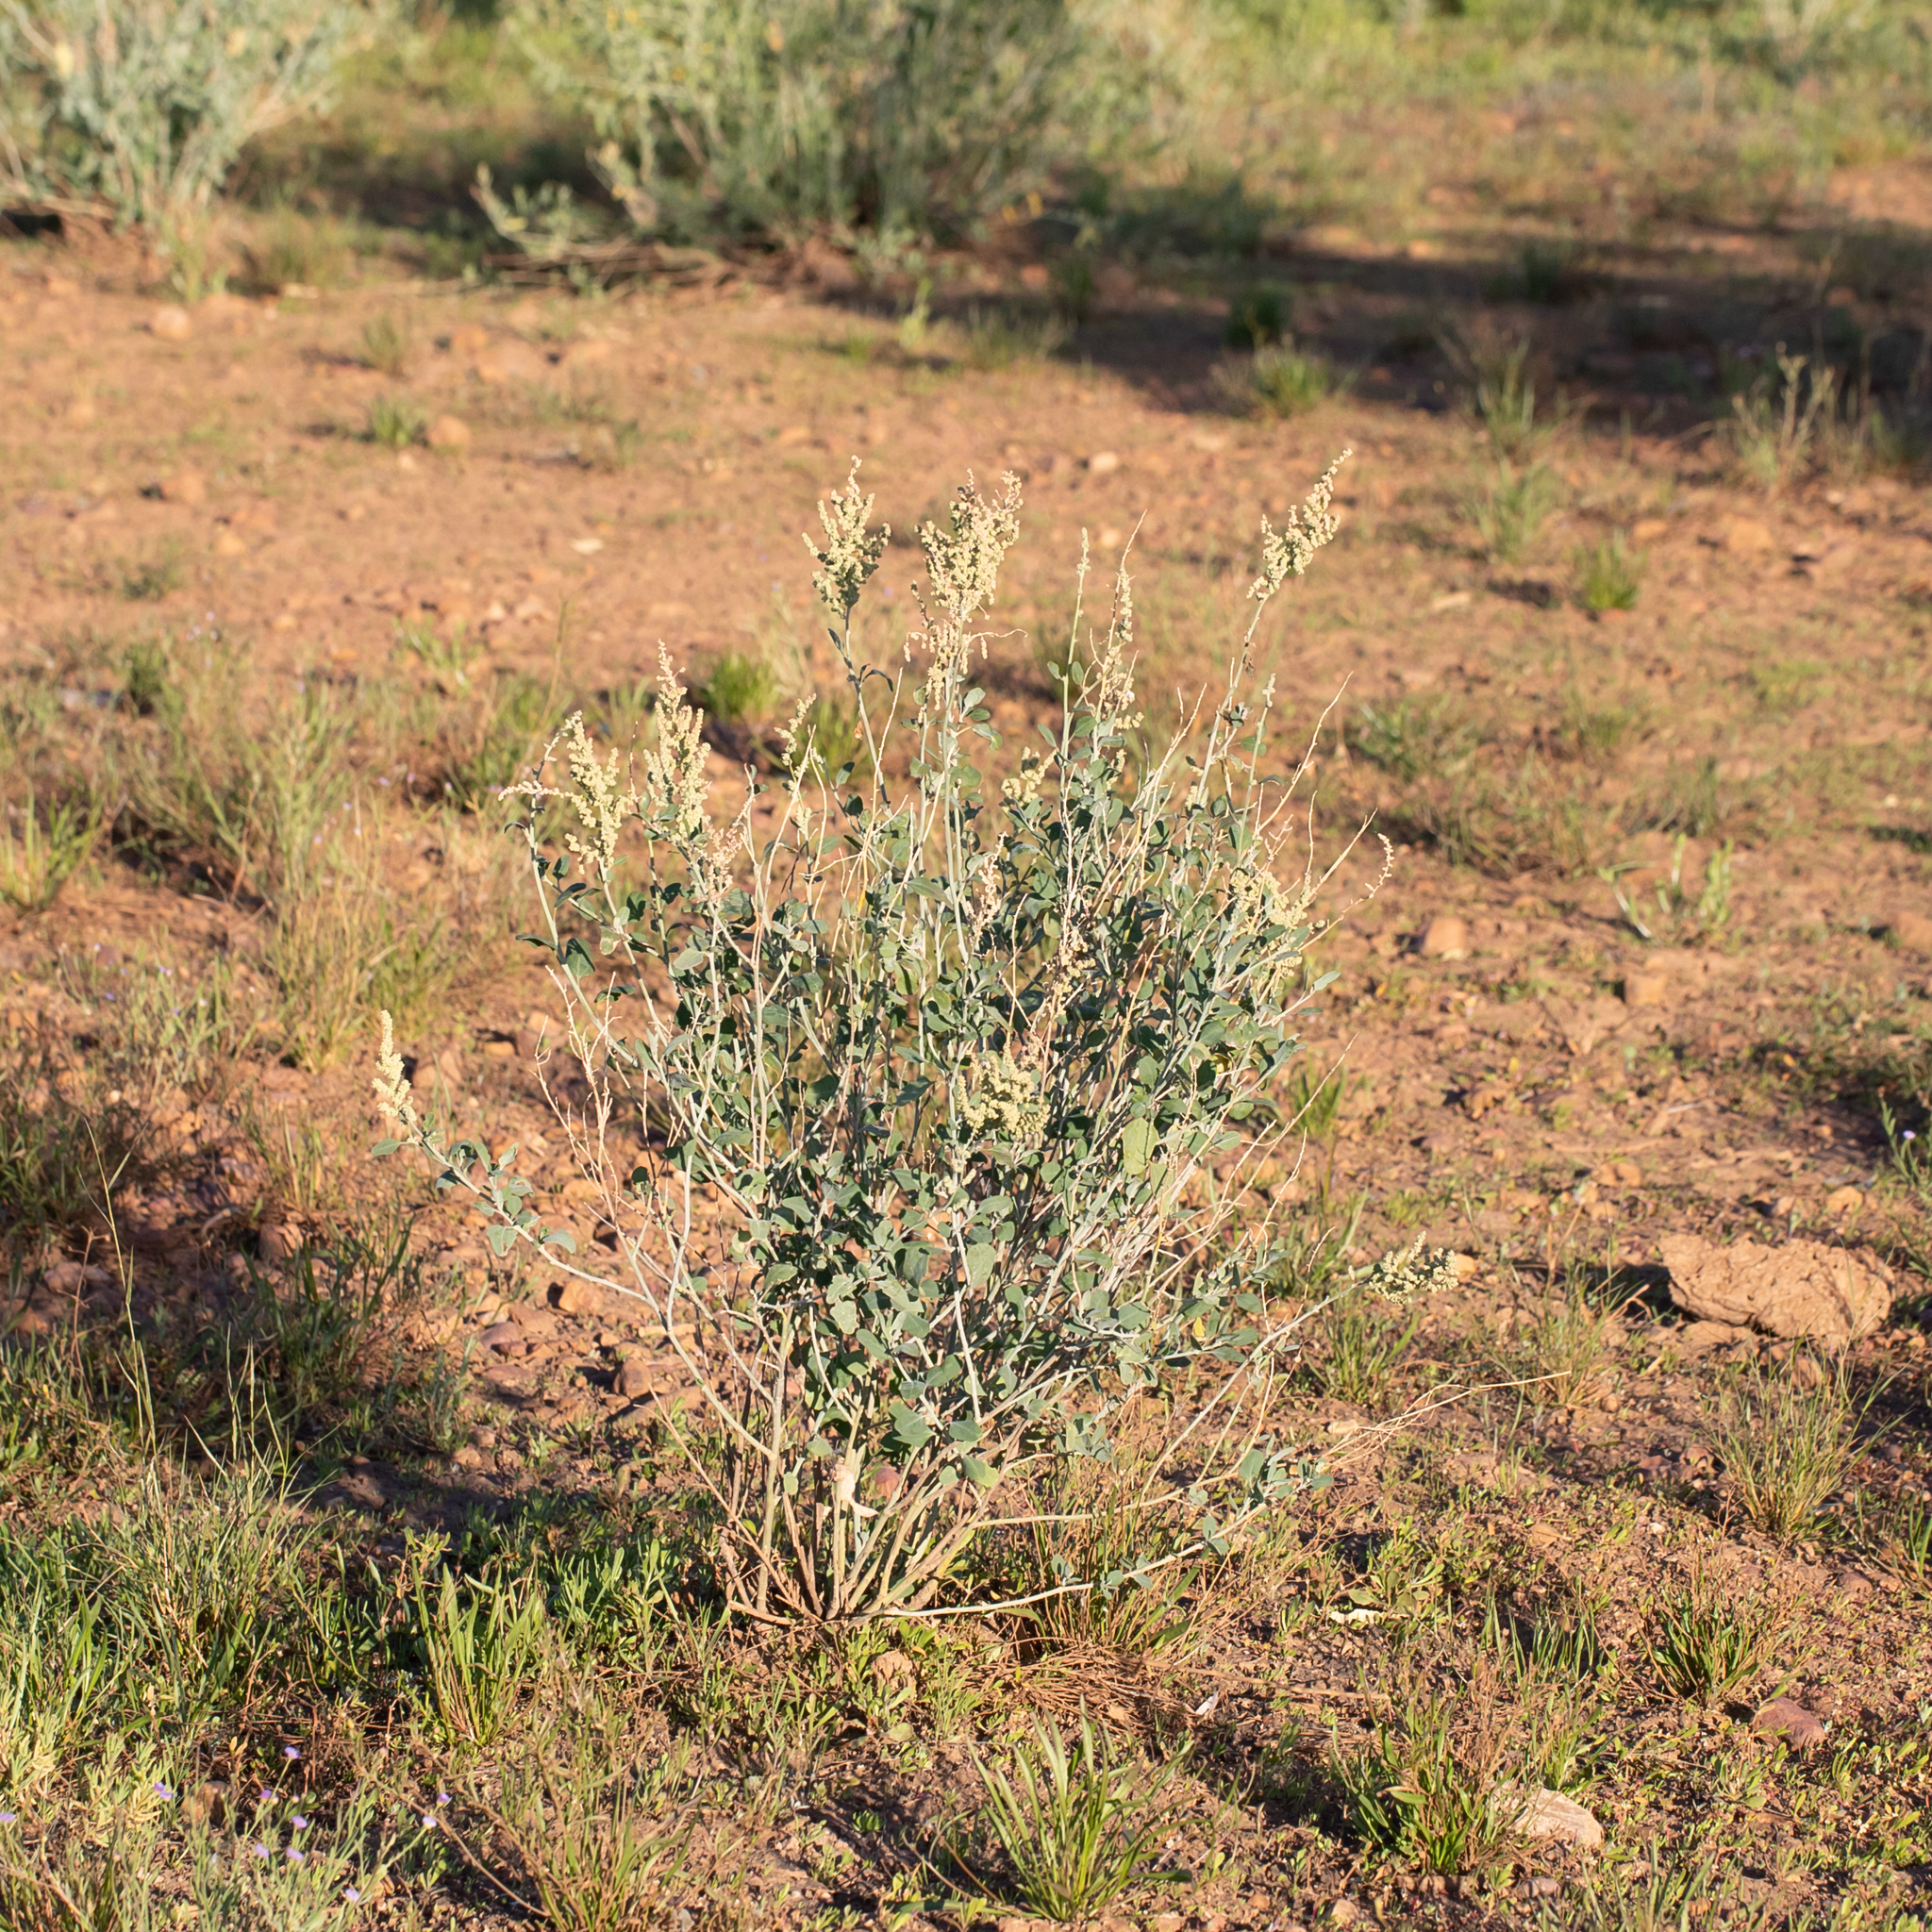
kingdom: Plantae
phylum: Tracheophyta
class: Magnoliopsida
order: Caryophyllales
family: Amaranthaceae
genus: Chenopodium
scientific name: Chenopodium auricomum
